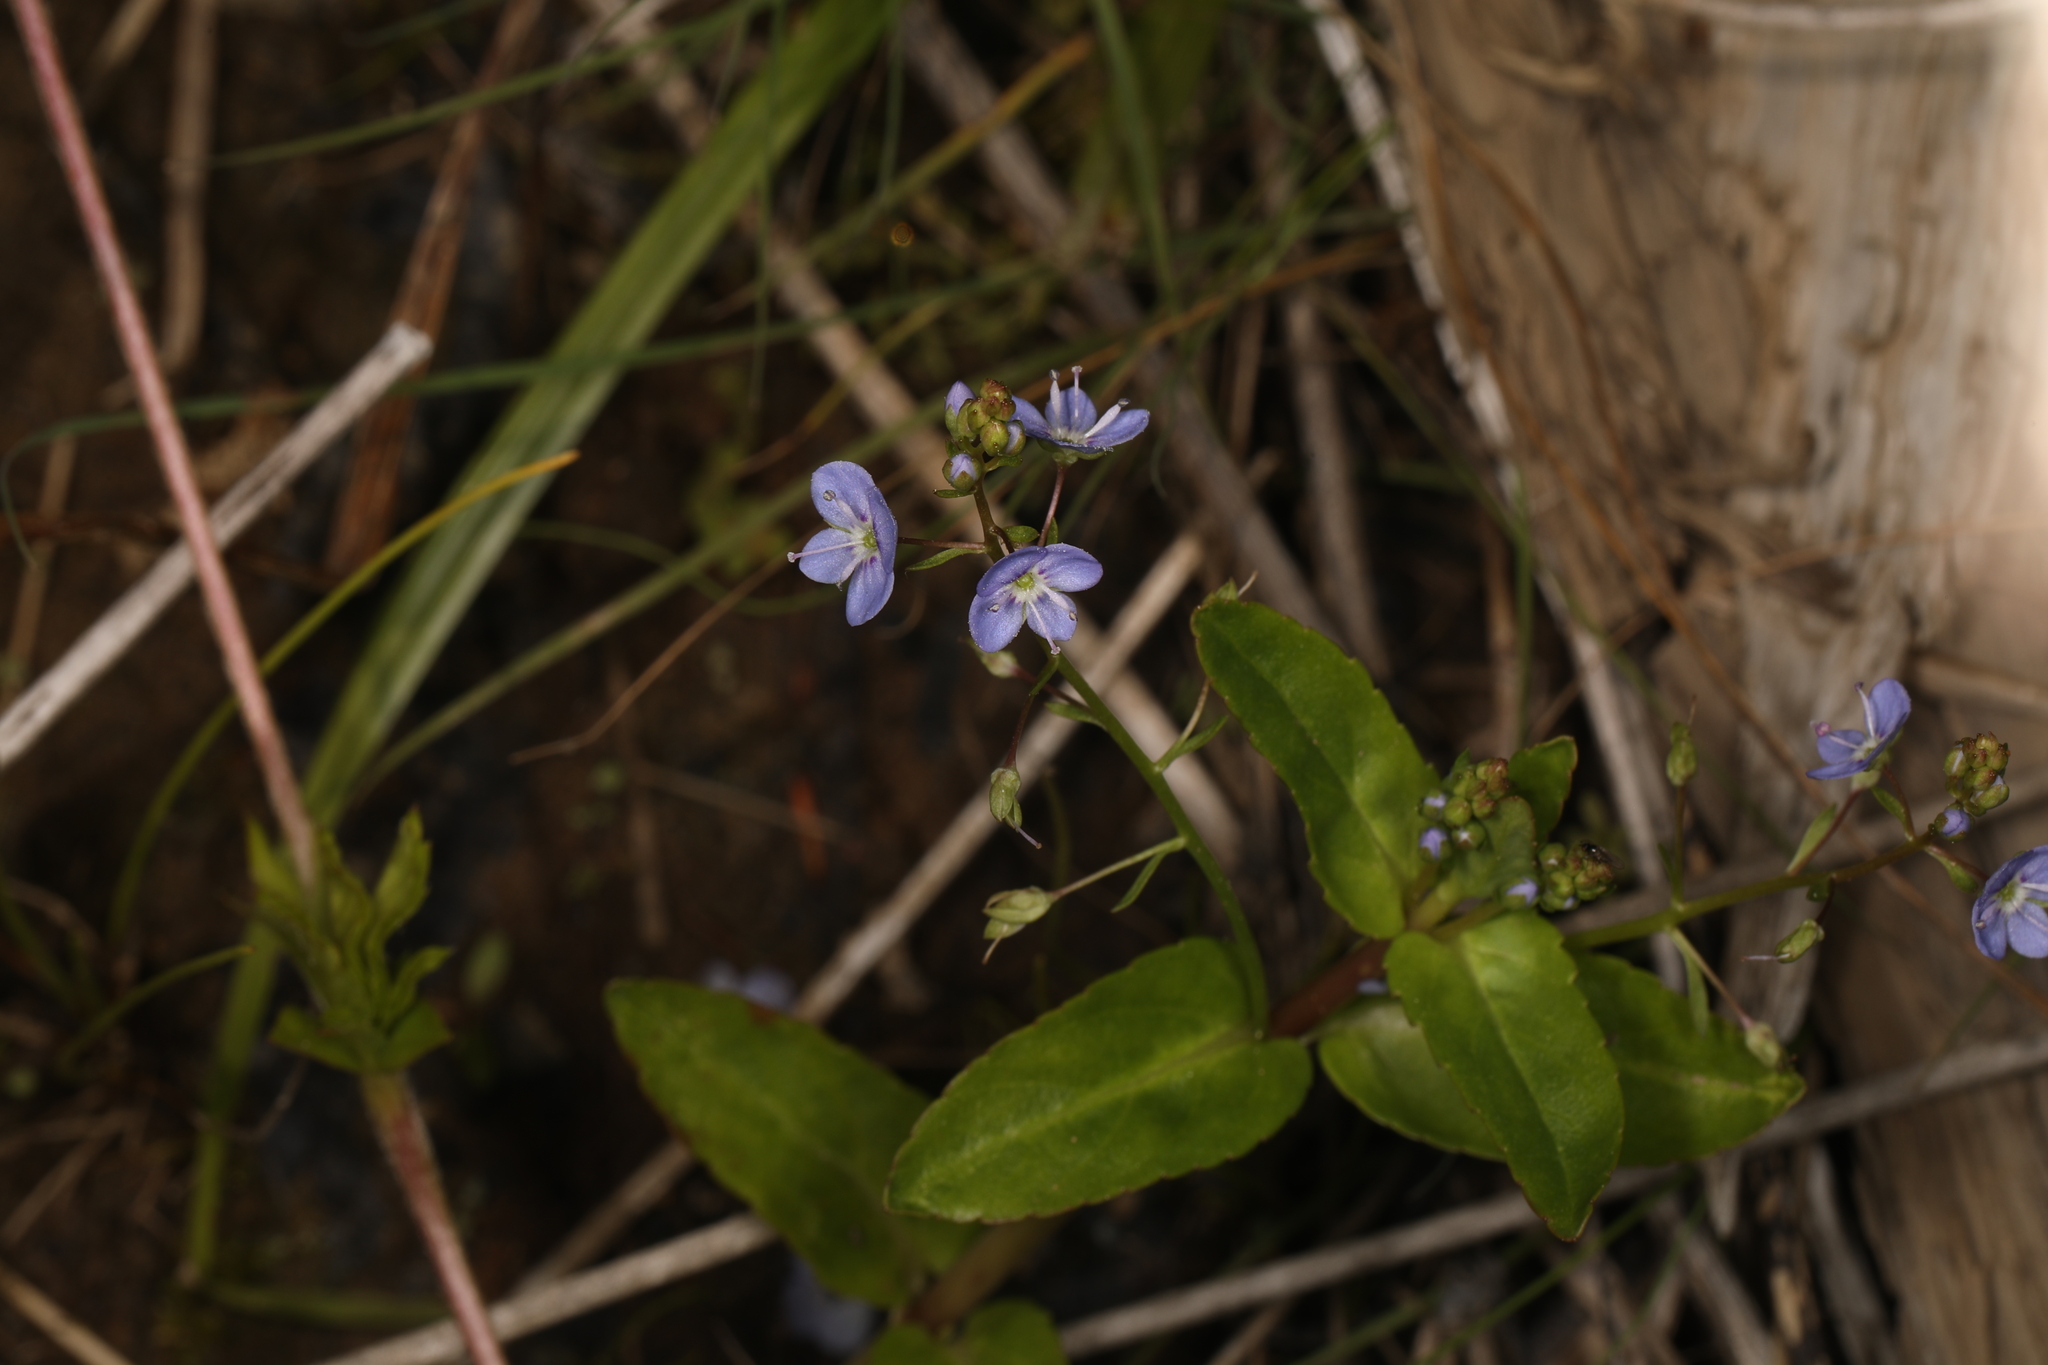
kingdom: Plantae
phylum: Tracheophyta
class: Magnoliopsida
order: Lamiales
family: Plantaginaceae
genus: Veronica
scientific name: Veronica americana
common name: American brooklime
